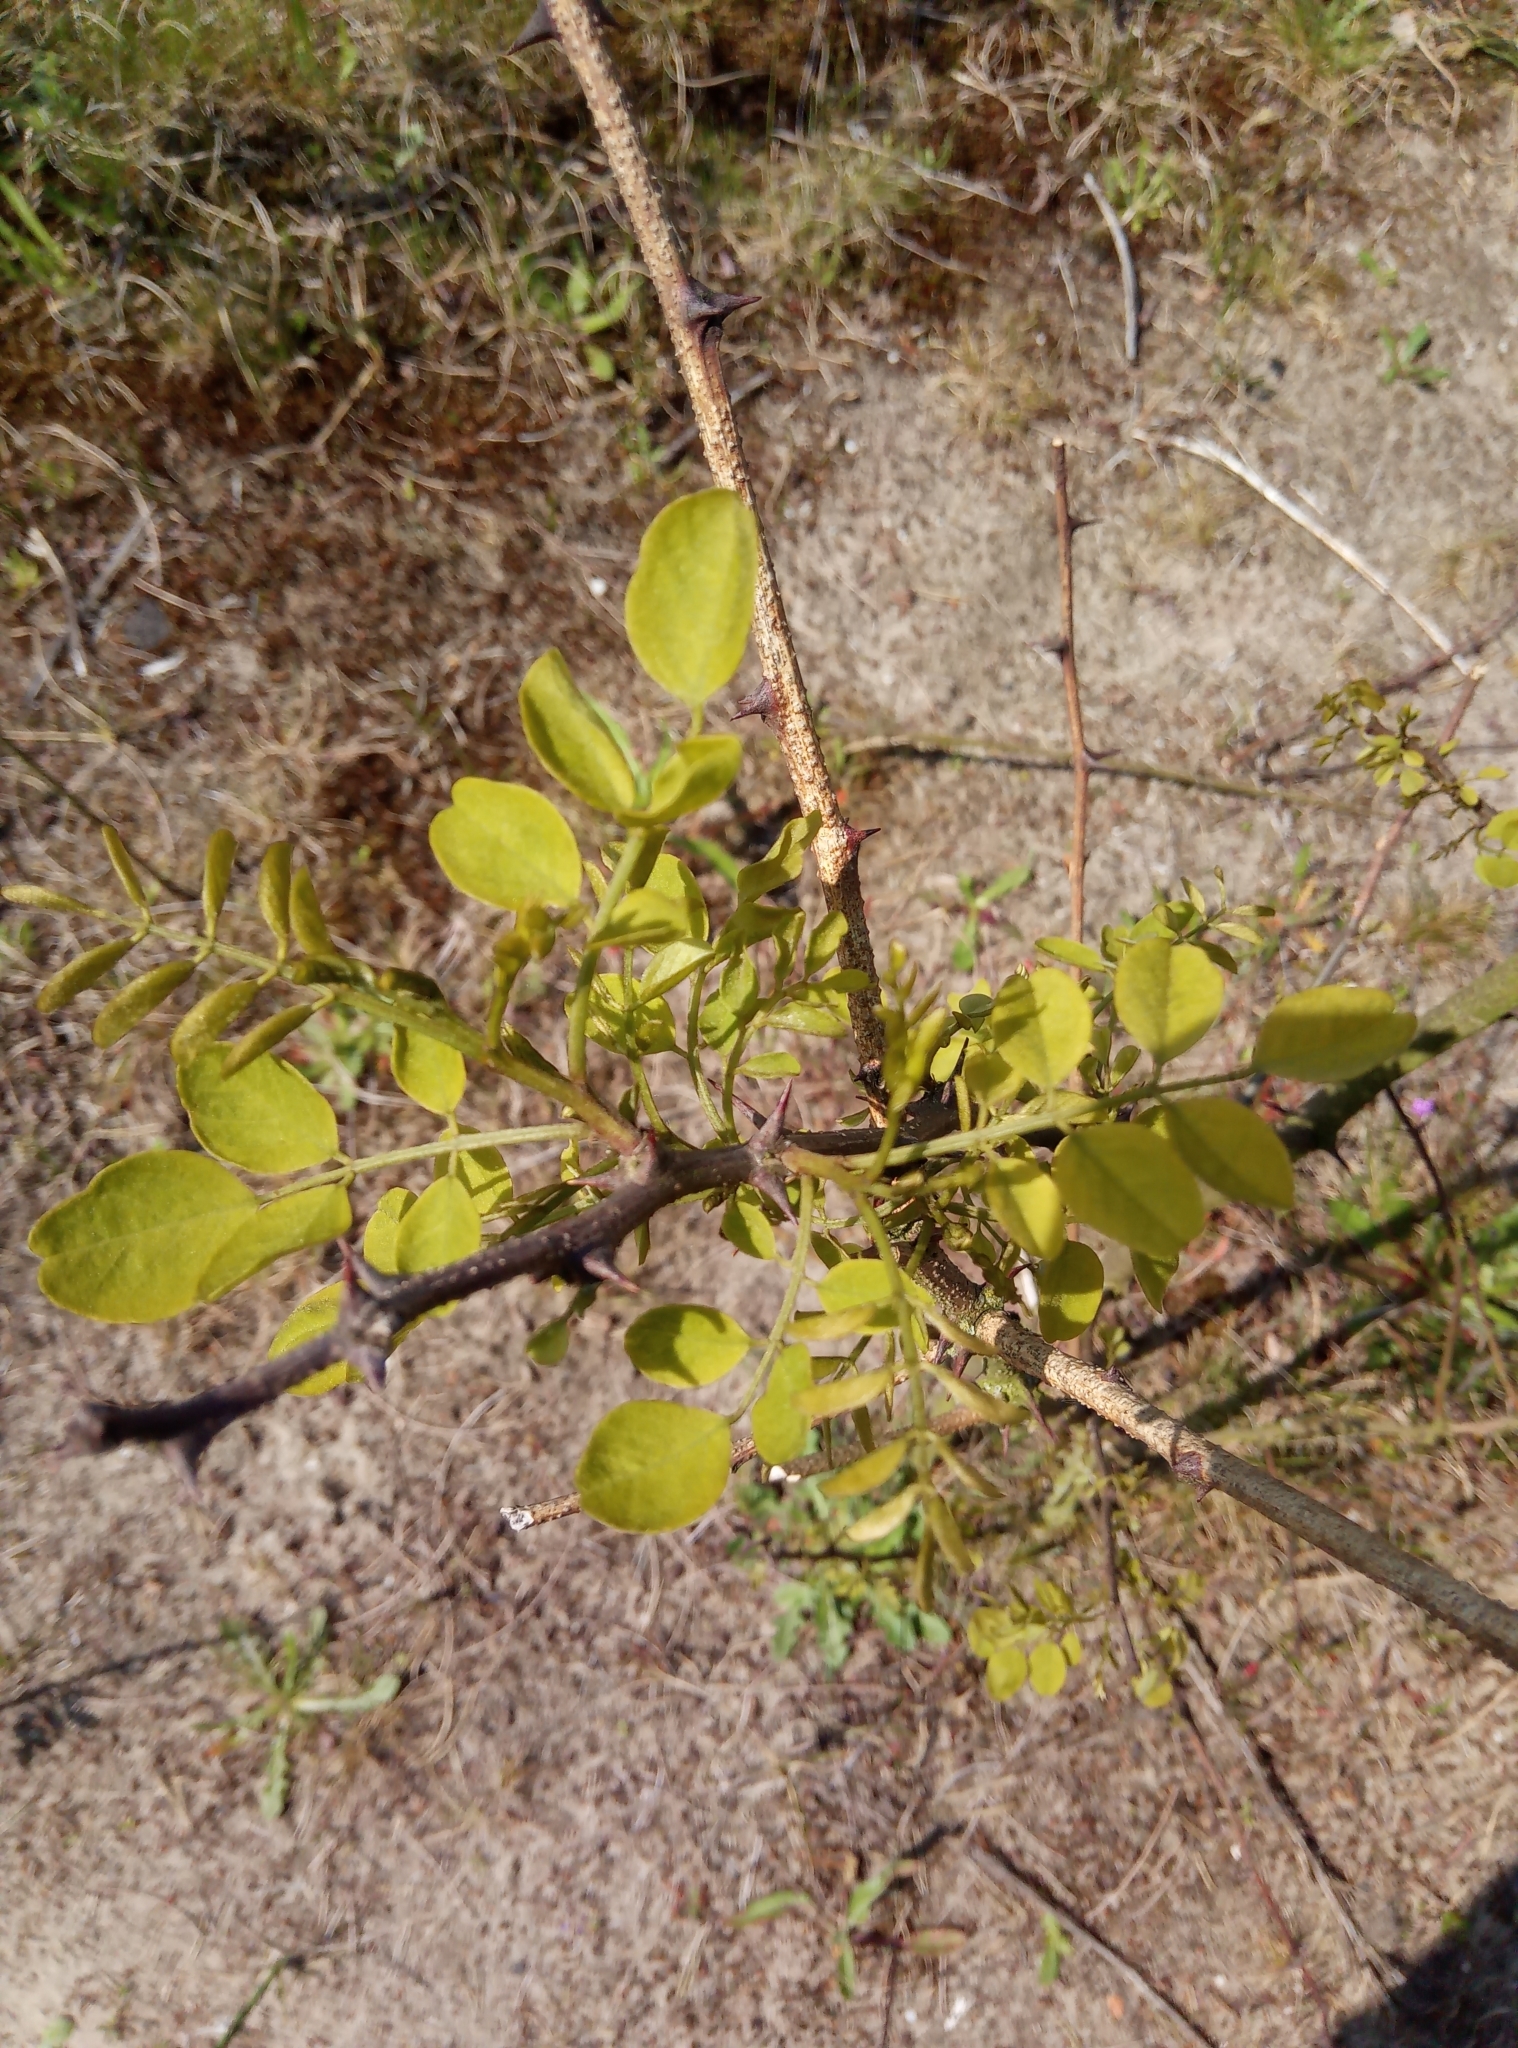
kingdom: Plantae
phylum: Tracheophyta
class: Magnoliopsida
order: Fabales
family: Fabaceae
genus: Robinia
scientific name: Robinia pseudoacacia
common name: Black locust
